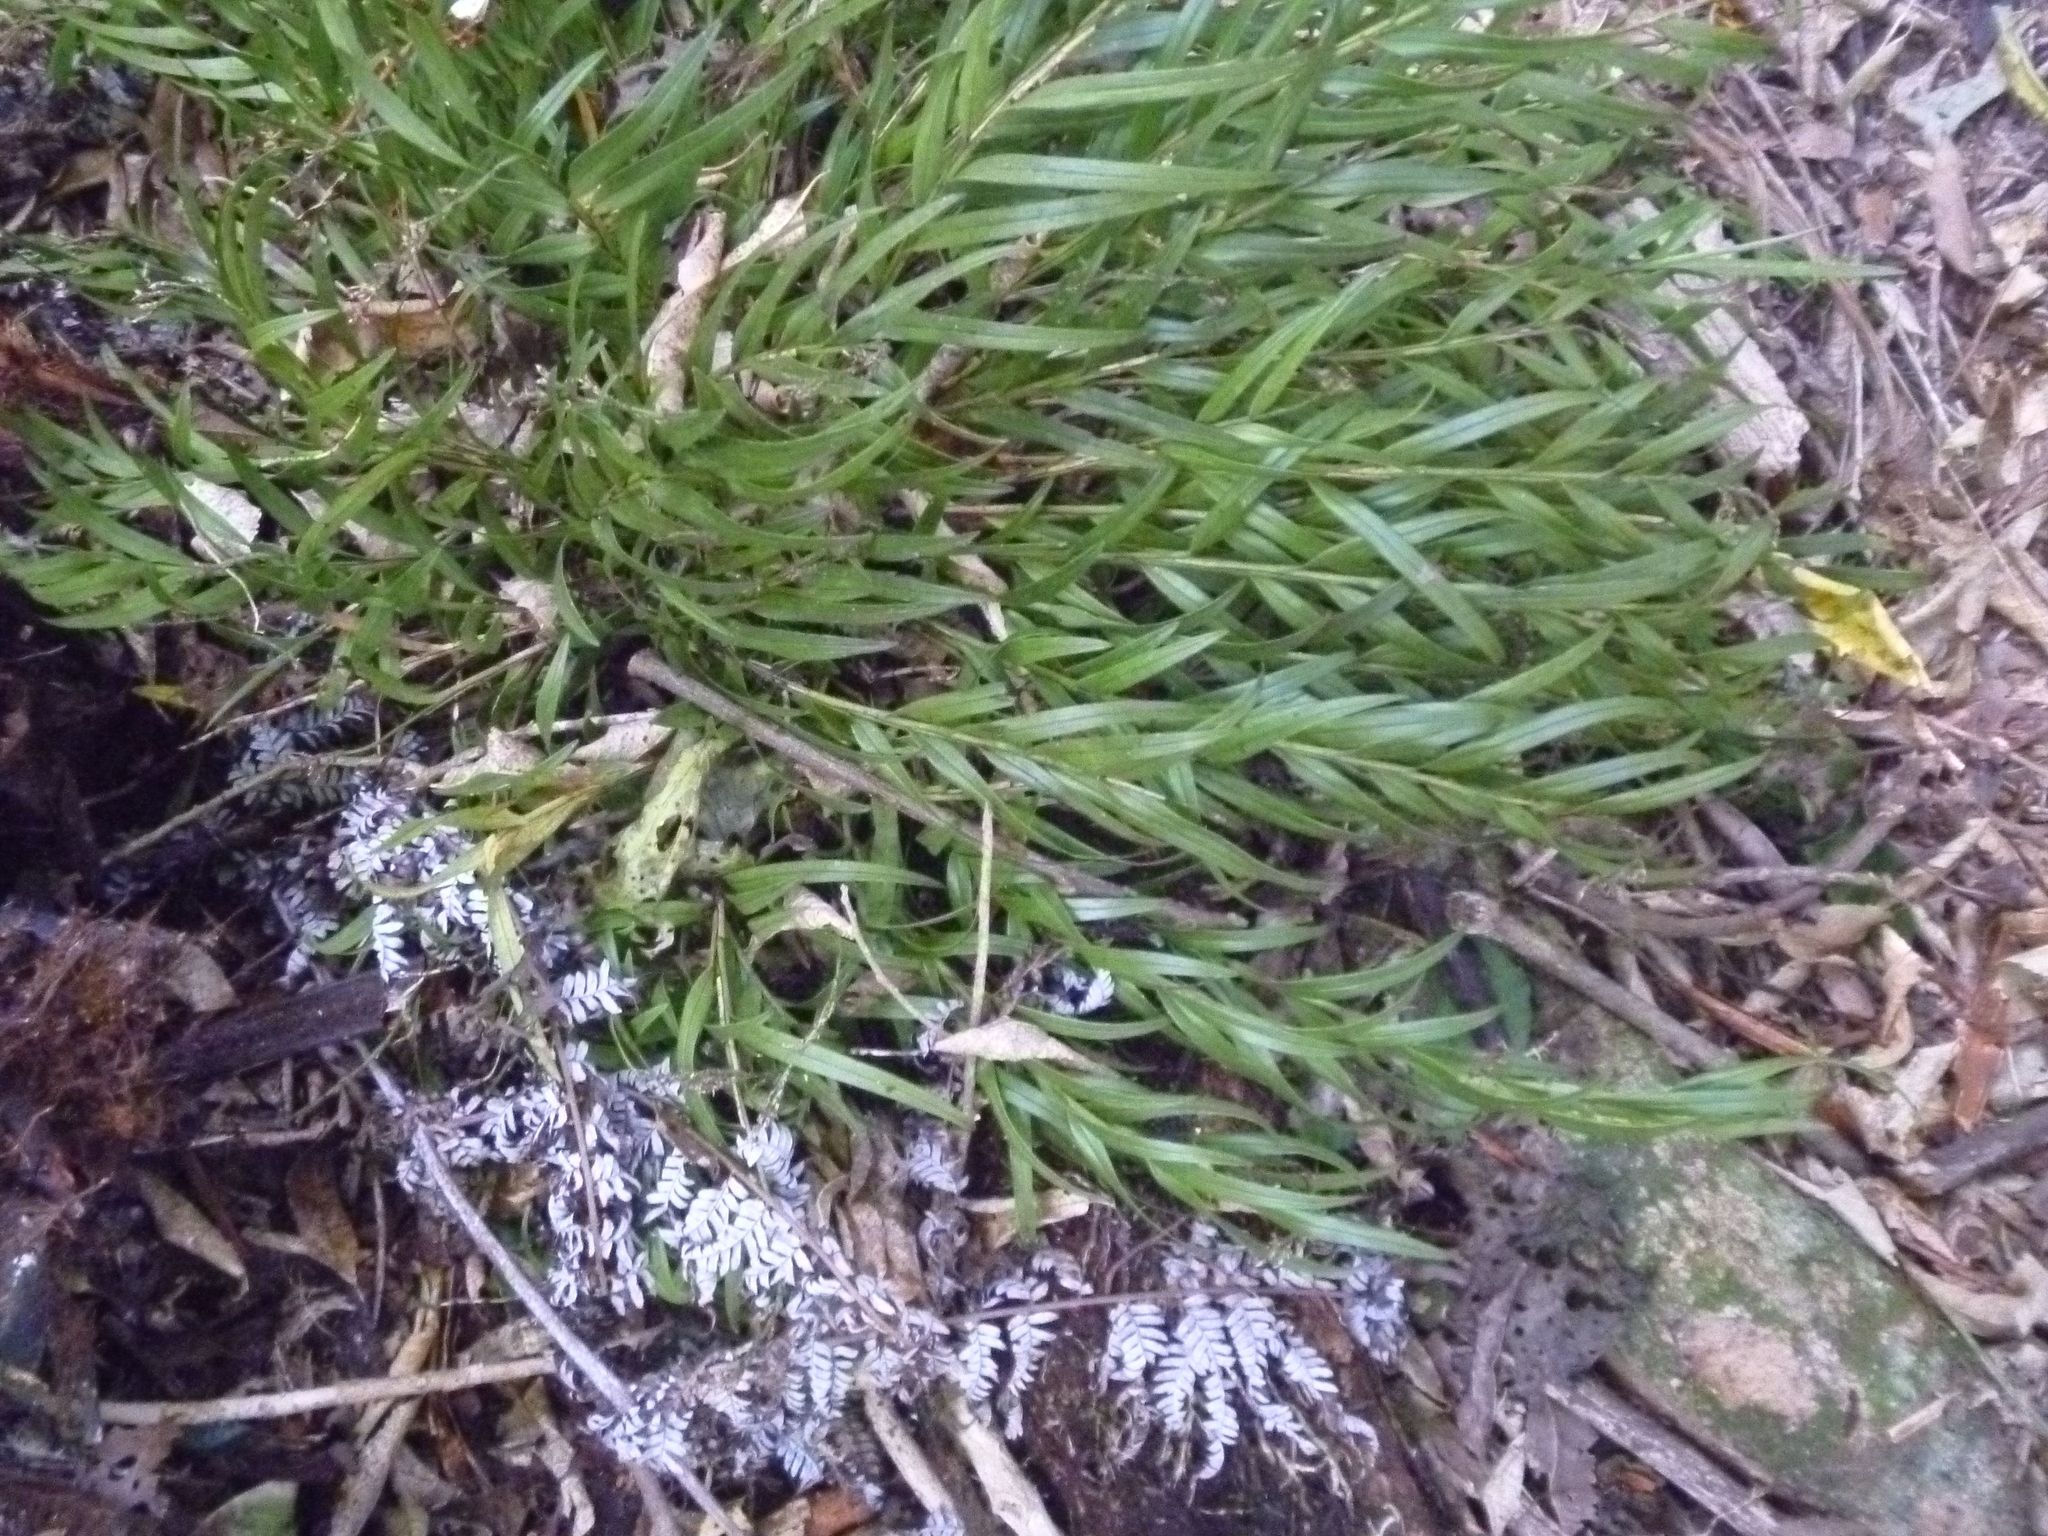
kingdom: Plantae
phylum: Tracheophyta
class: Liliopsida
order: Asparagales
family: Orchidaceae
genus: Earina
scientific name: Earina autumnalis
